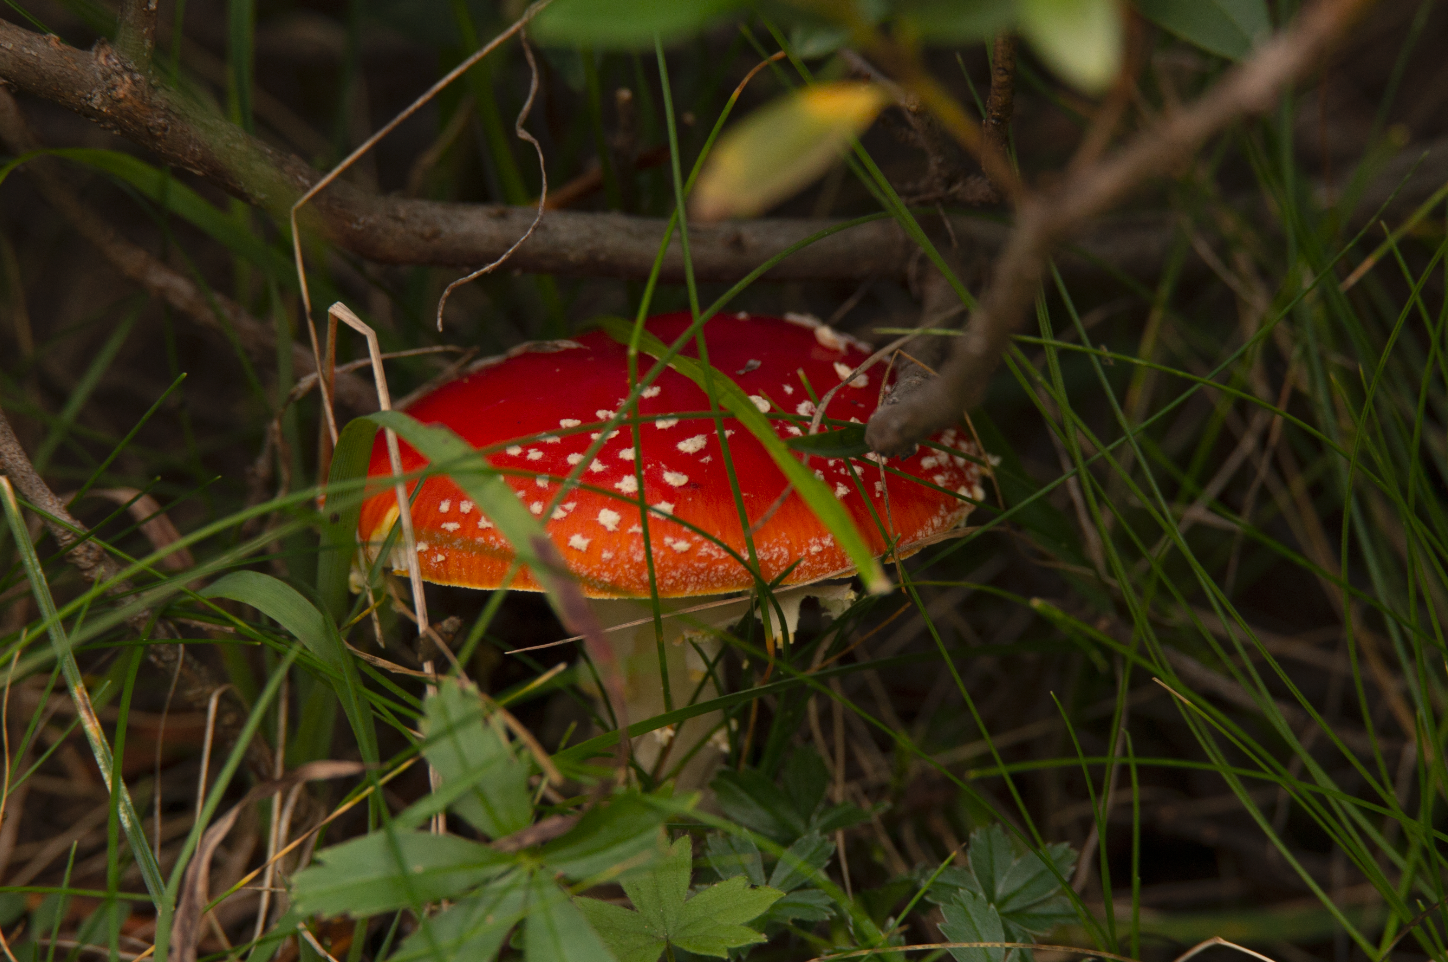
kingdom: Fungi
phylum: Basidiomycota
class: Agaricomycetes
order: Agaricales
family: Amanitaceae
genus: Amanita
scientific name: Amanita muscaria
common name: Fly agaric
